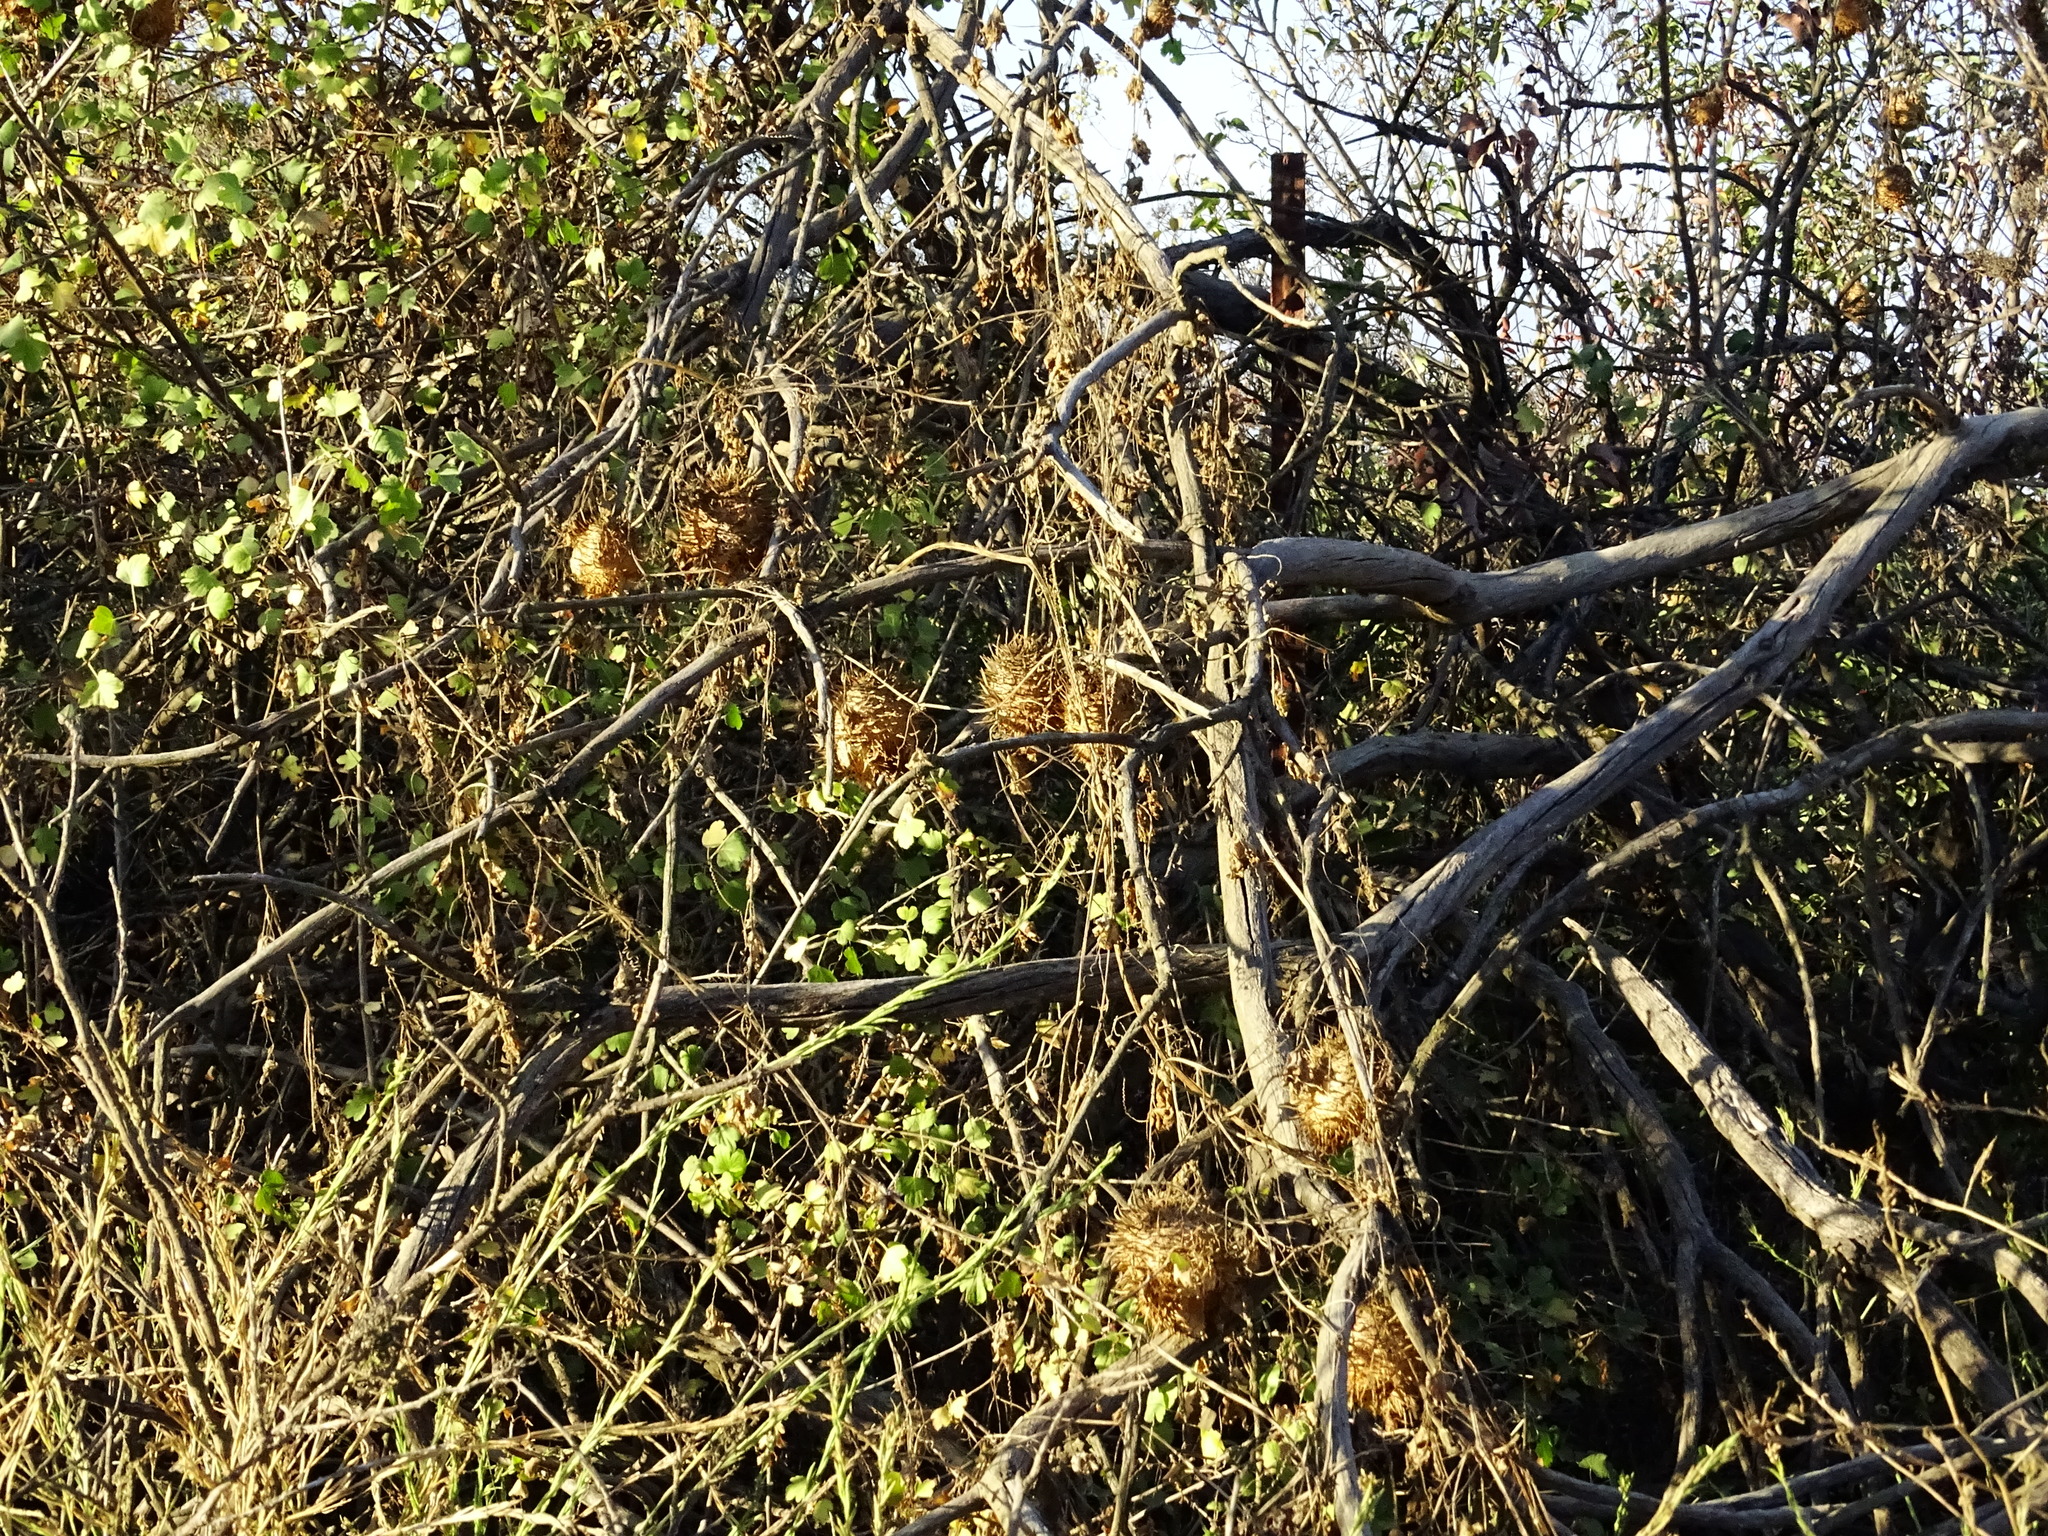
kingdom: Plantae
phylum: Tracheophyta
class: Magnoliopsida
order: Cucurbitales
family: Cucurbitaceae
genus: Marah
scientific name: Marah macrocarpa
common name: Cucamonga manroot
